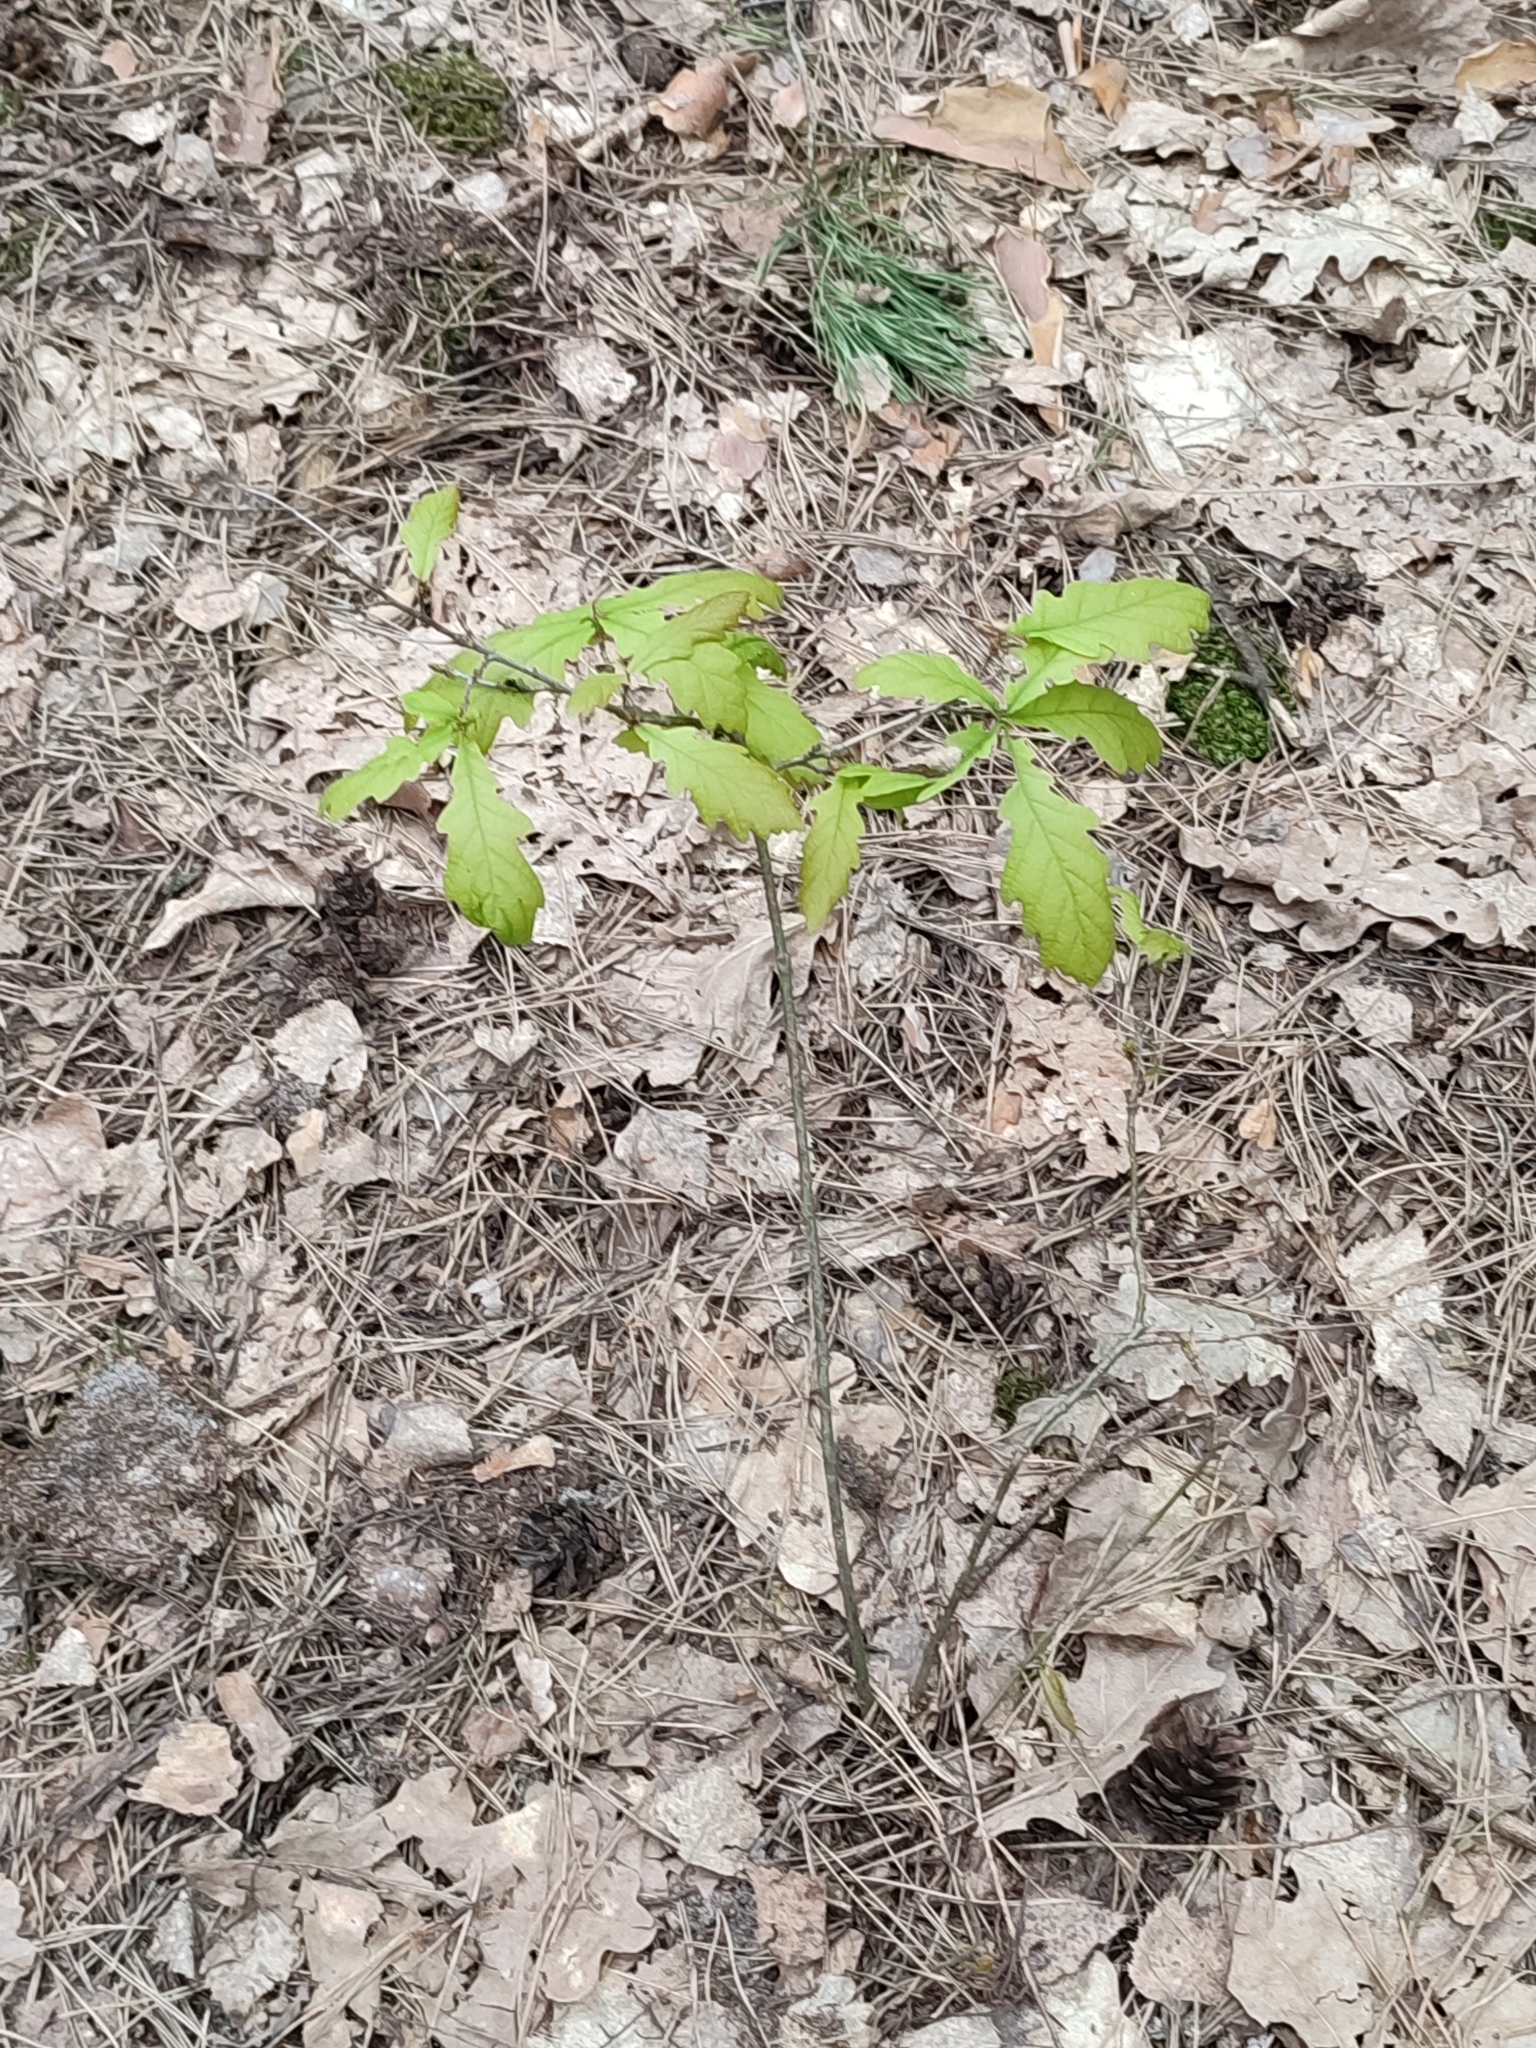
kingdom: Plantae
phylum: Tracheophyta
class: Magnoliopsida
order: Fagales
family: Fagaceae
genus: Quercus
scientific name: Quercus robur
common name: Pedunculate oak
